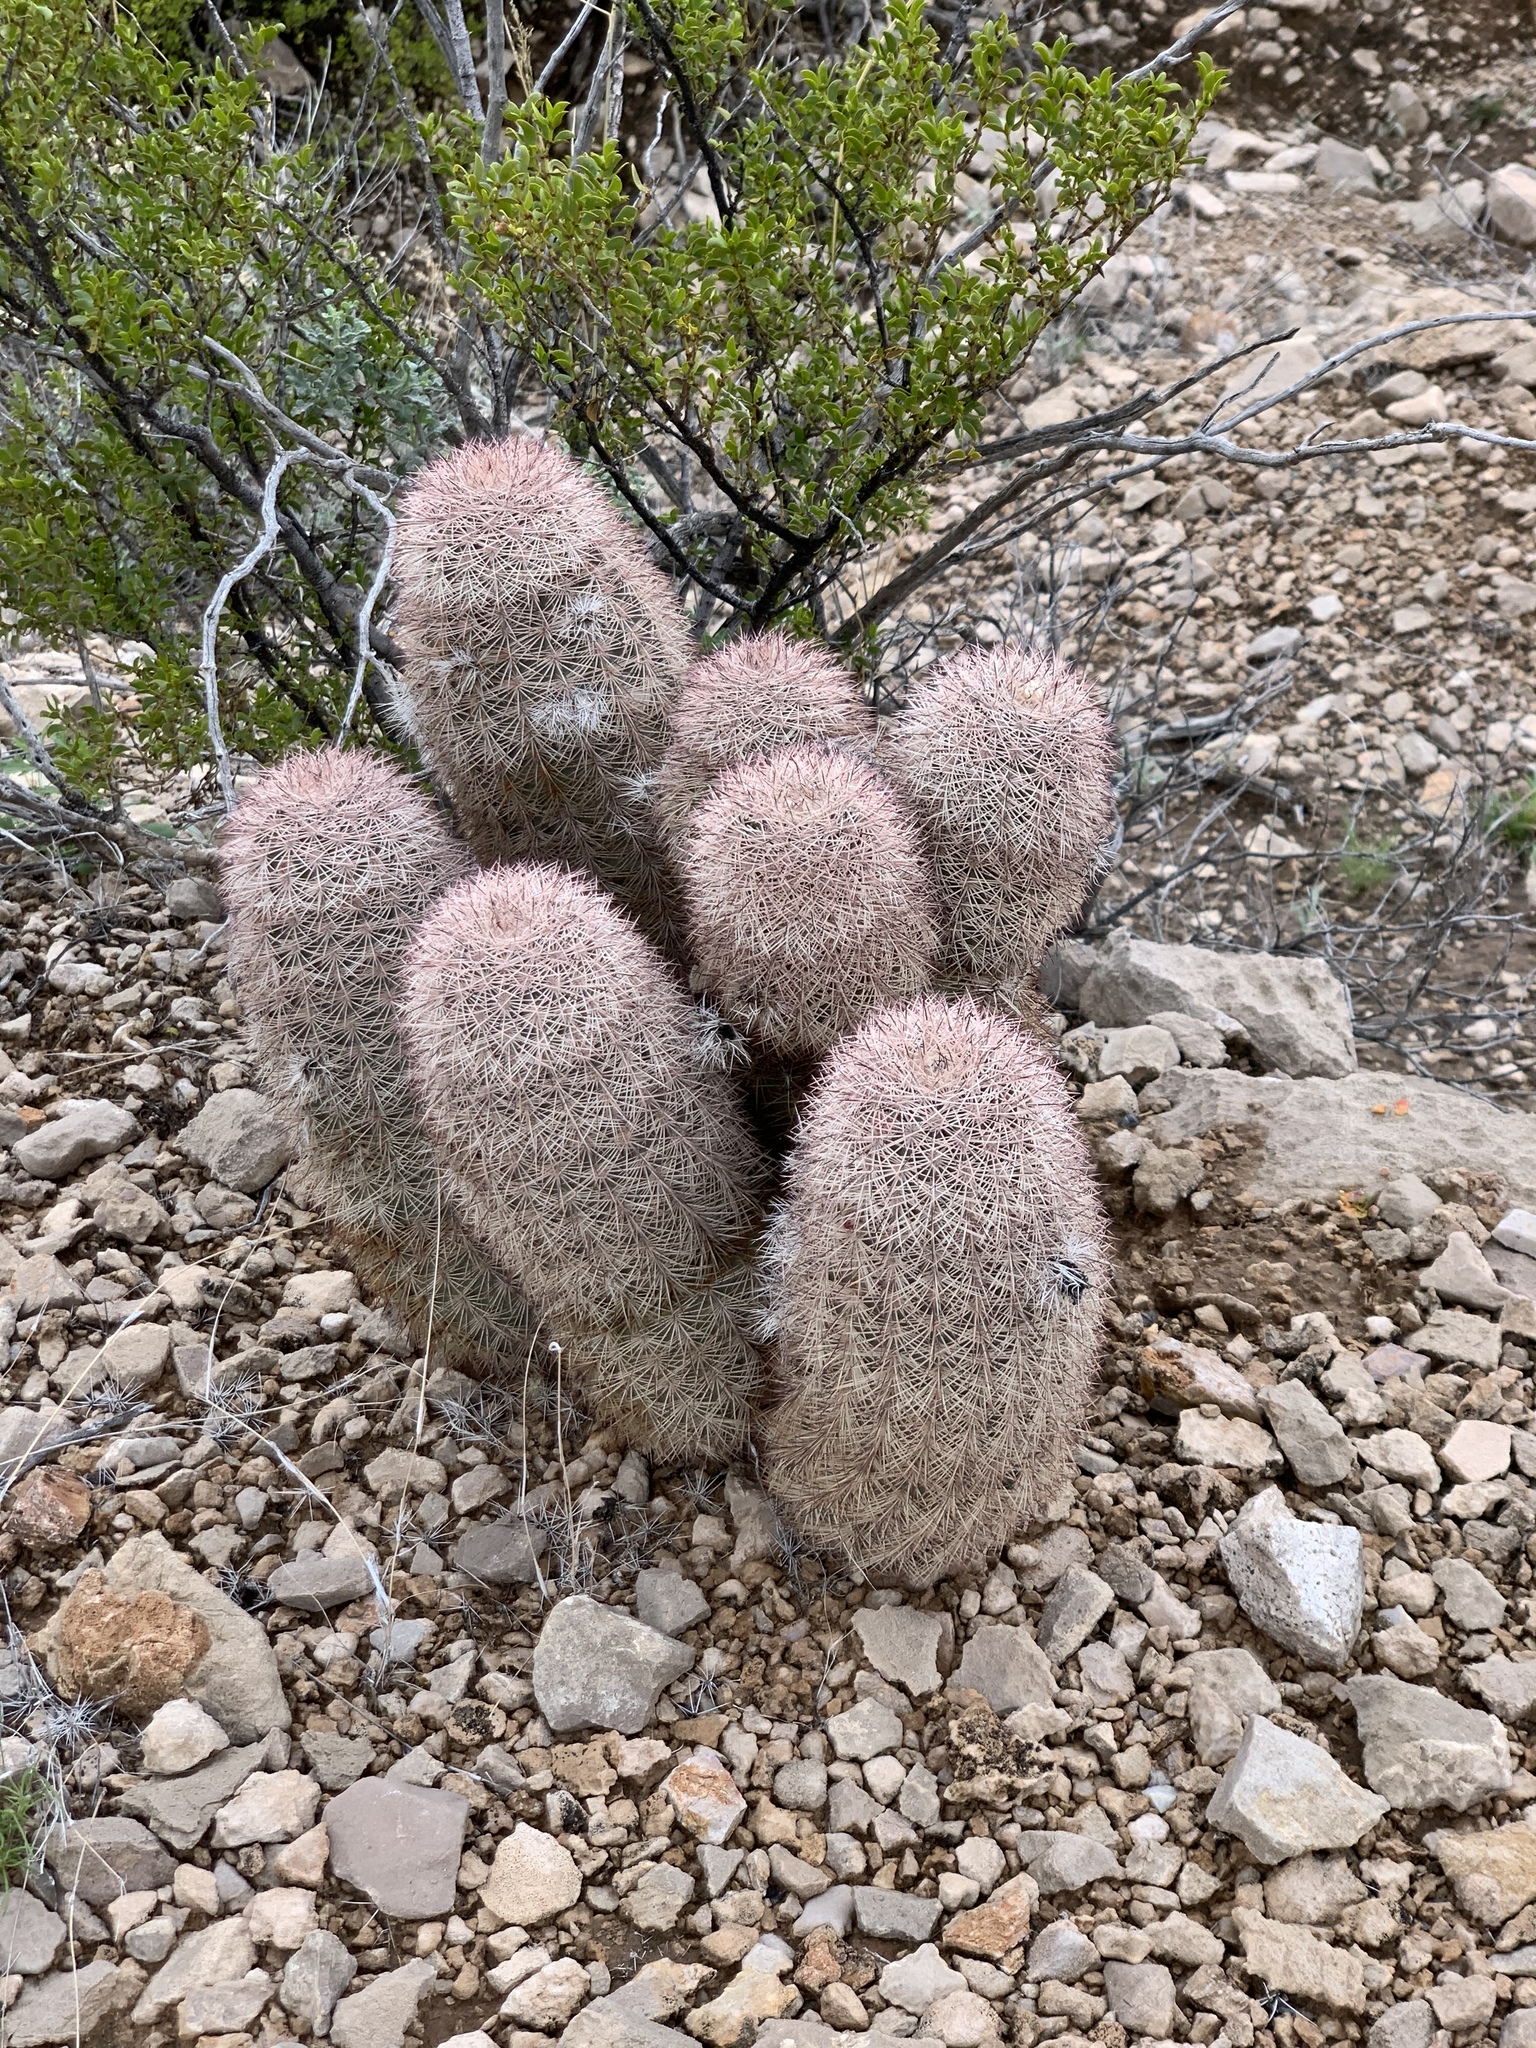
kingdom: Plantae
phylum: Tracheophyta
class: Magnoliopsida
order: Caryophyllales
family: Cactaceae
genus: Echinocereus
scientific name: Echinocereus dasyacanthus
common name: Spiny hedgehog cactus
